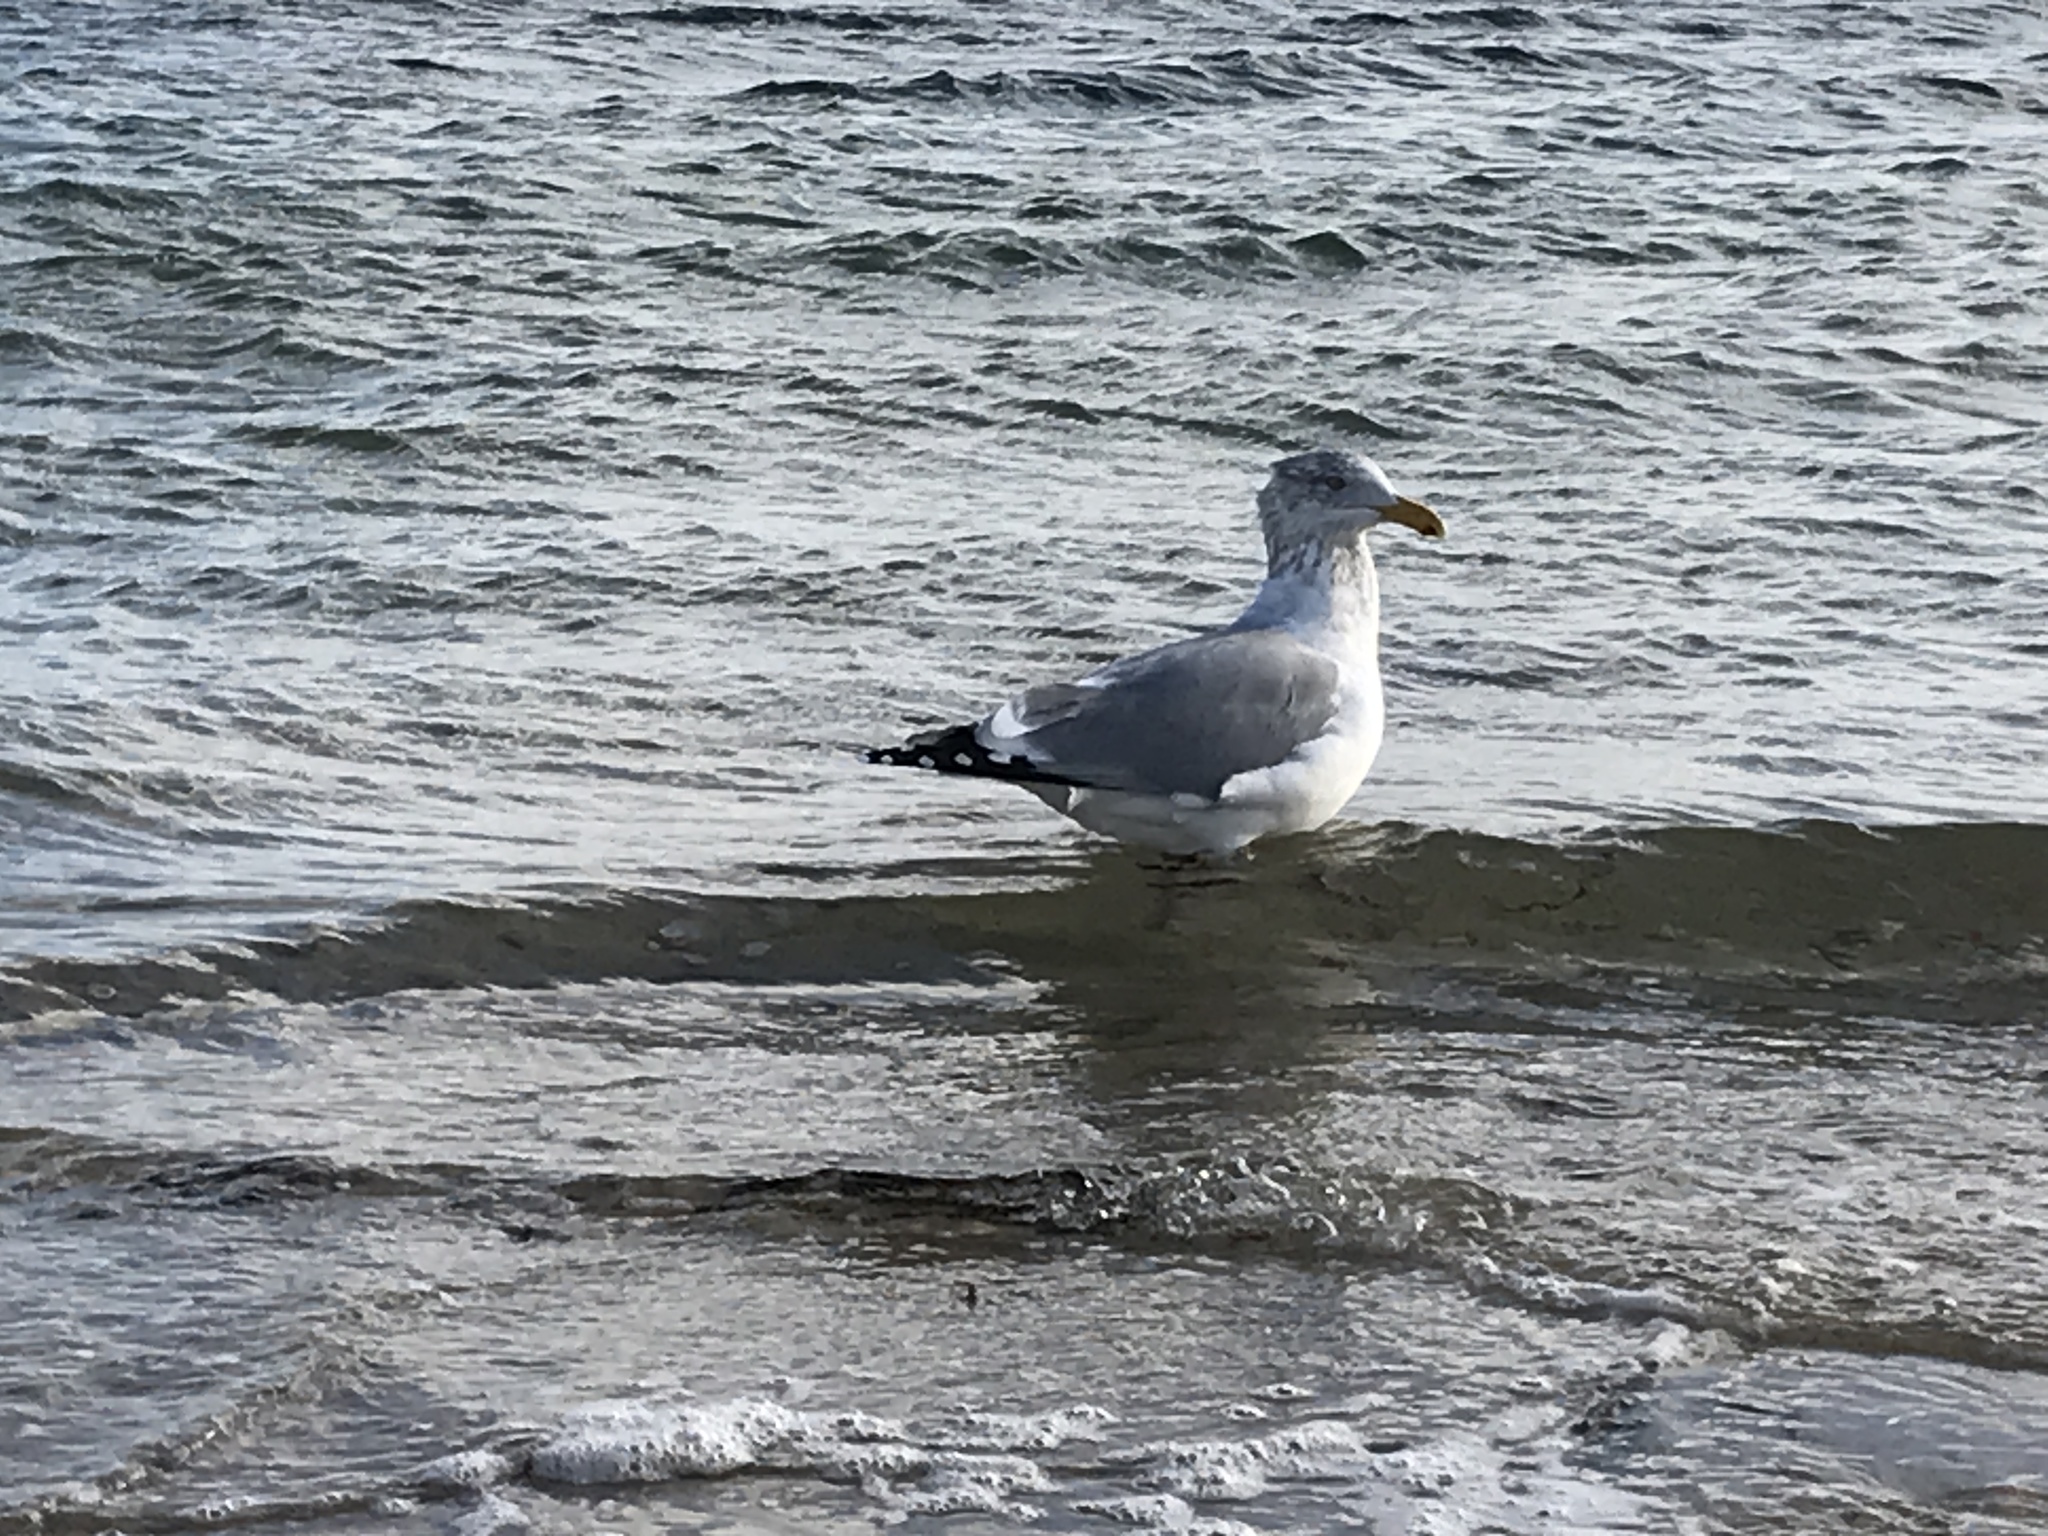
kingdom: Animalia
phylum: Chordata
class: Aves
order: Charadriiformes
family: Laridae
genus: Larus
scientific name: Larus argentatus
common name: Herring gull
